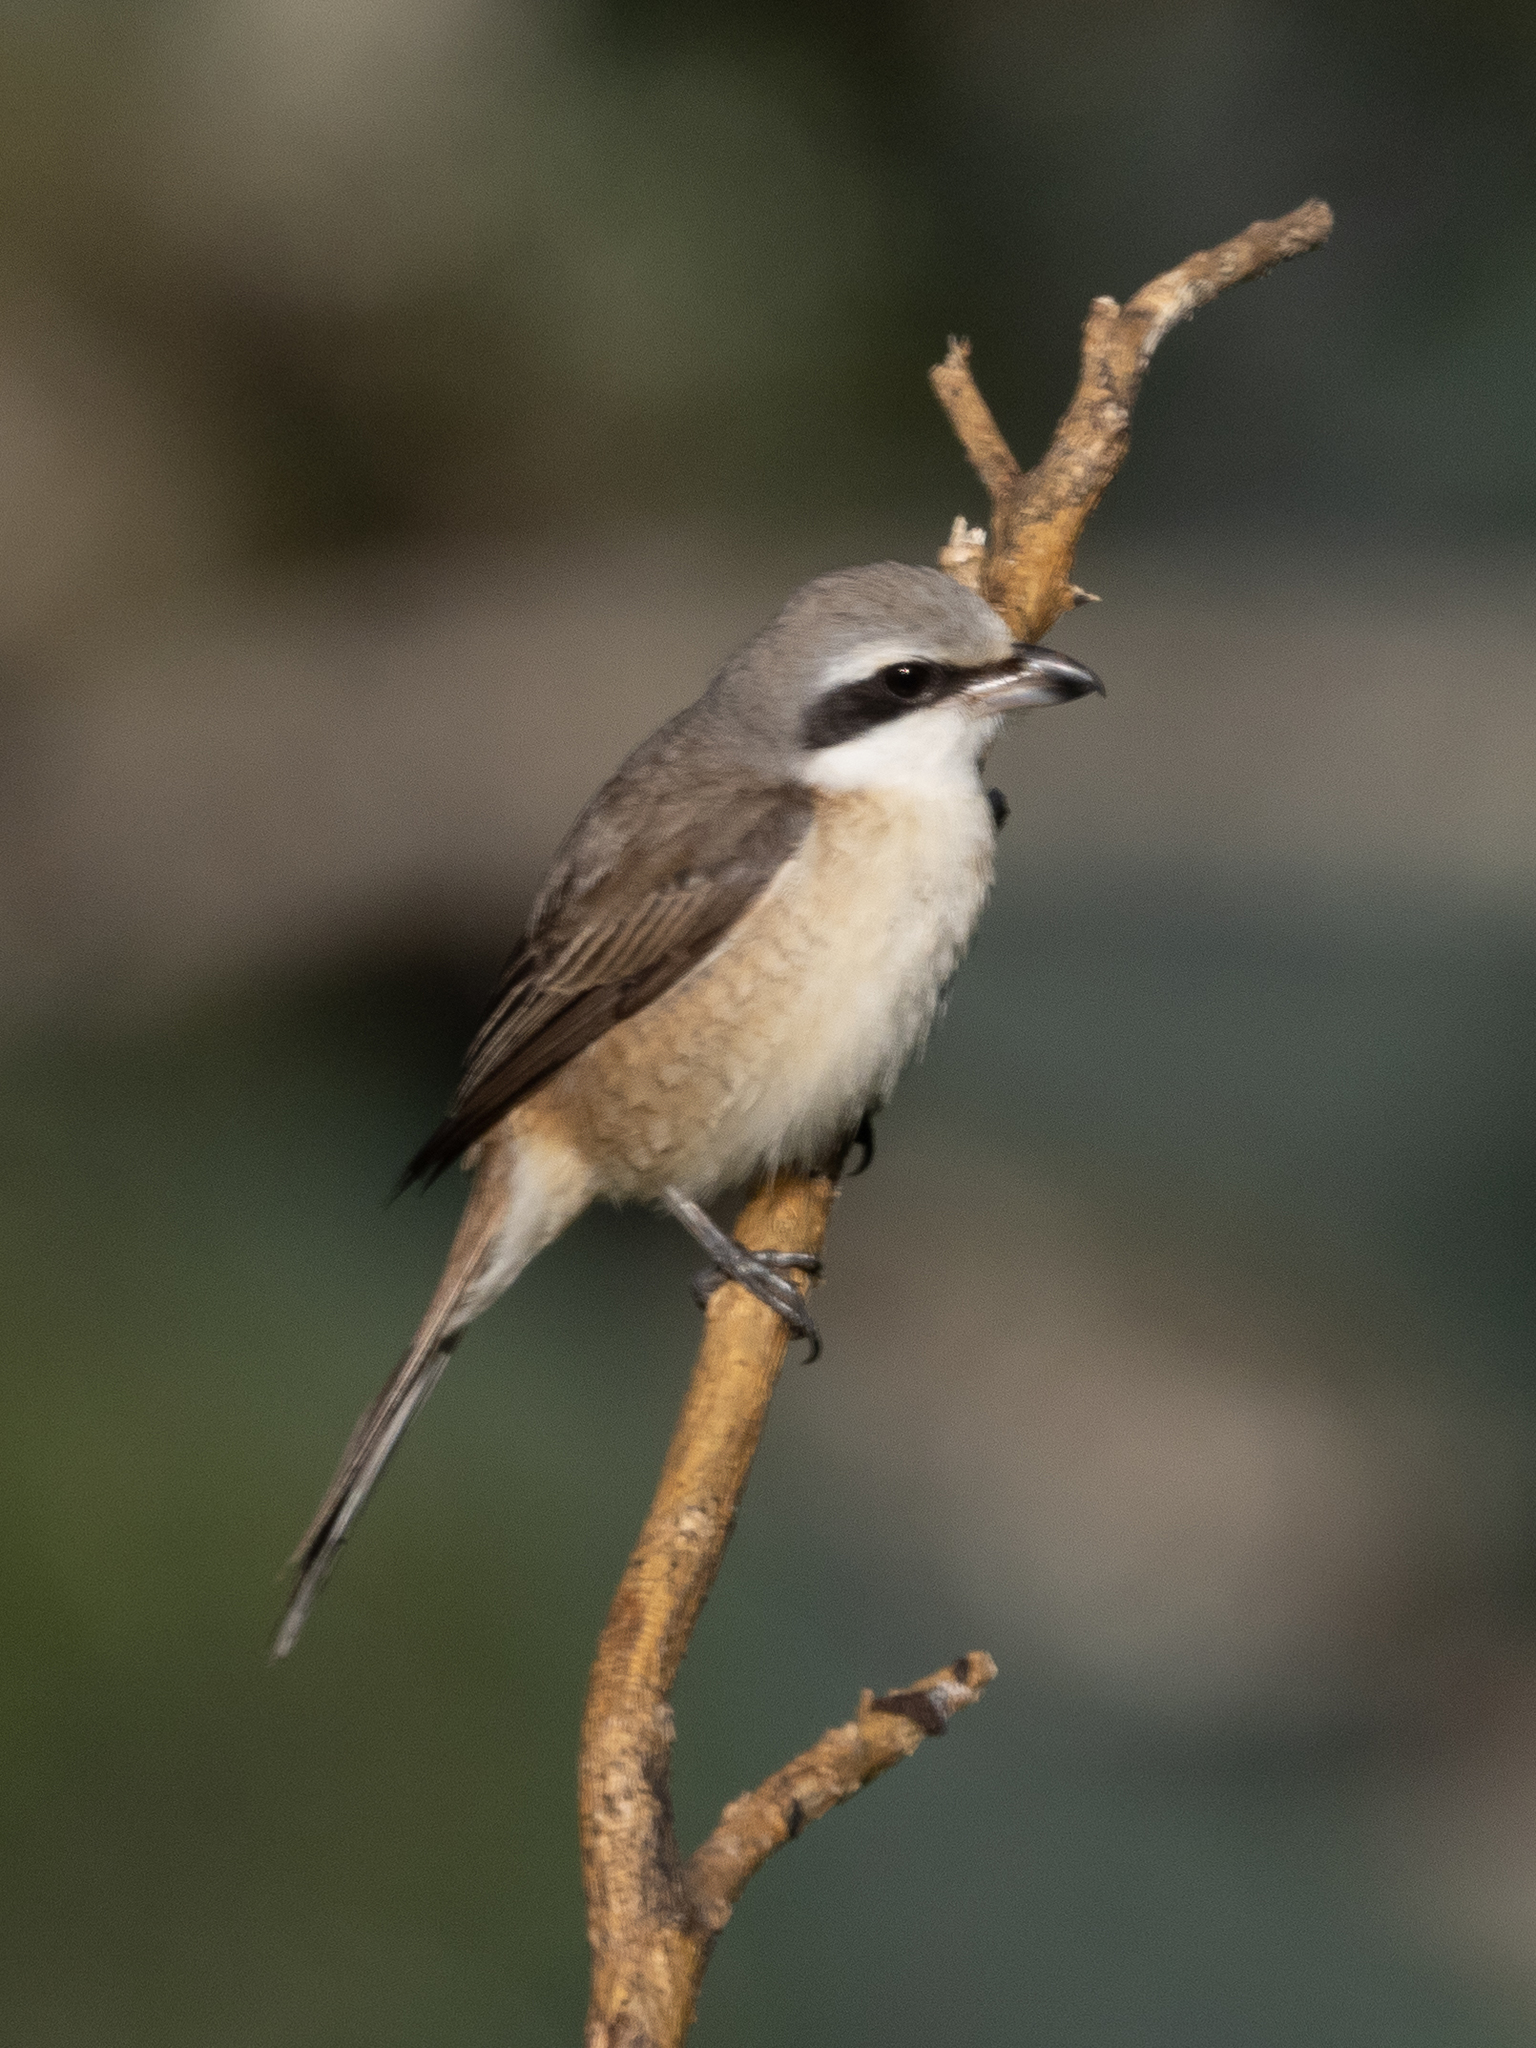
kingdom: Animalia
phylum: Chordata
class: Aves
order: Passeriformes
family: Laniidae
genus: Lanius
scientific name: Lanius cristatus
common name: Brown shrike
